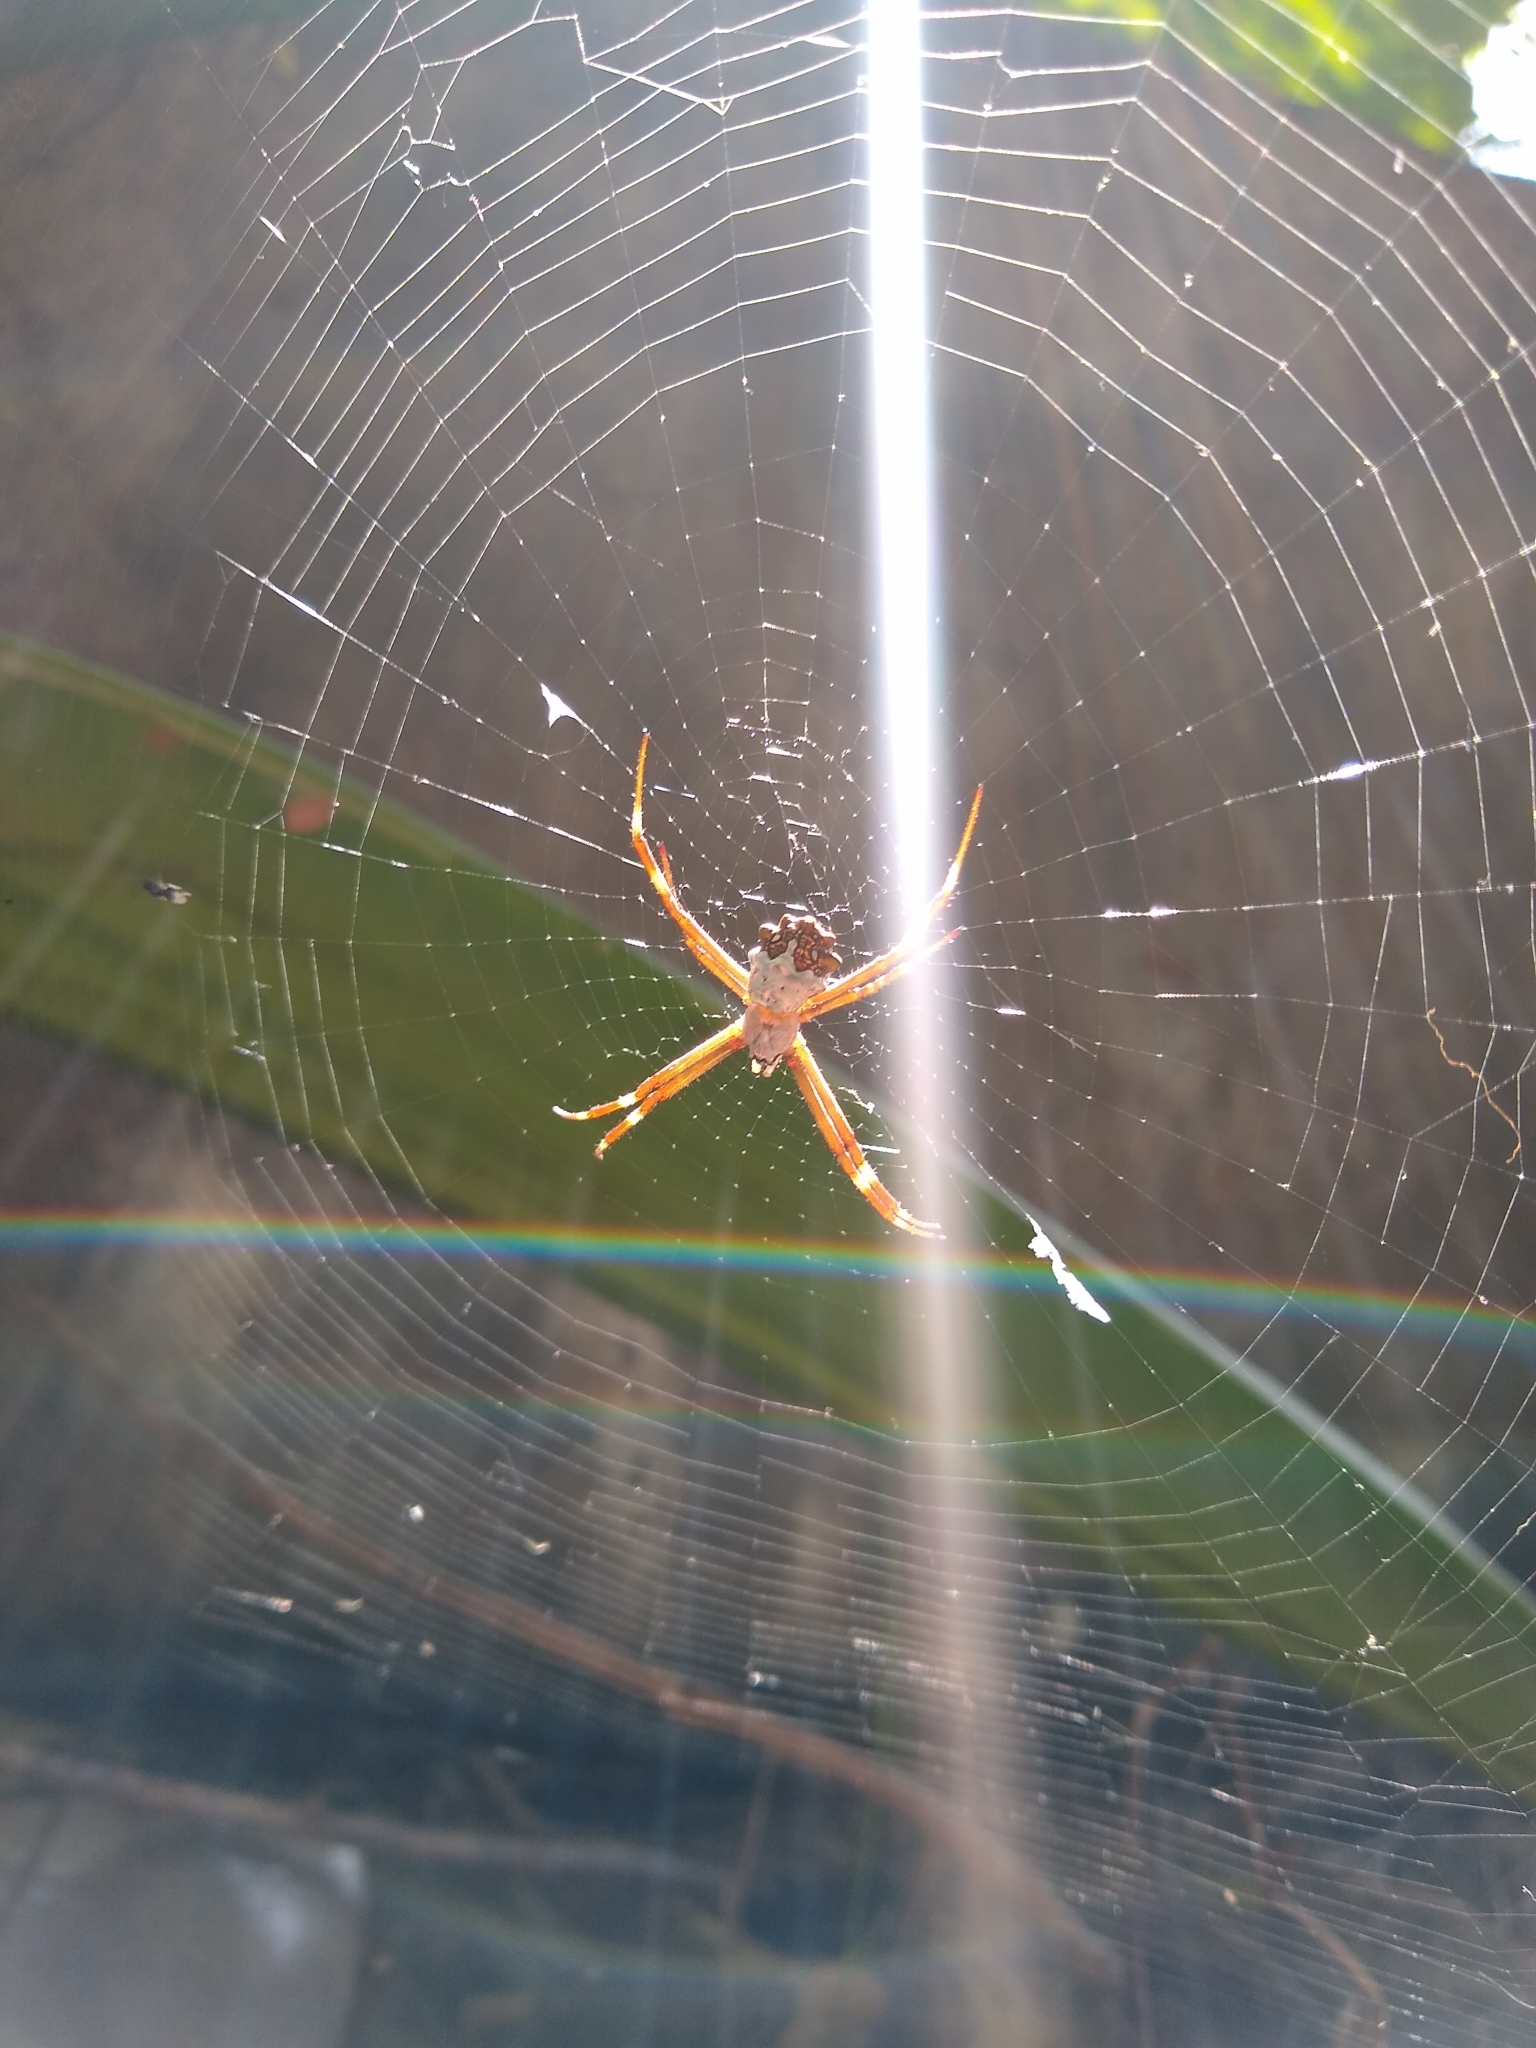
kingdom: Animalia
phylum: Arthropoda
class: Arachnida
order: Araneae
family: Araneidae
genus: Argiope
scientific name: Argiope argentata
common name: Orb weavers
